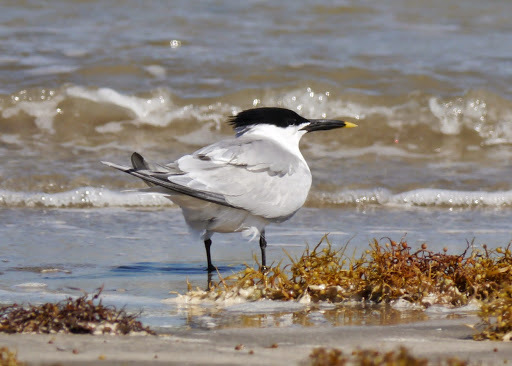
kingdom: Animalia
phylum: Chordata
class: Aves
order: Charadriiformes
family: Laridae
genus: Thalasseus
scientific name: Thalasseus sandvicensis
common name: Sandwich tern
